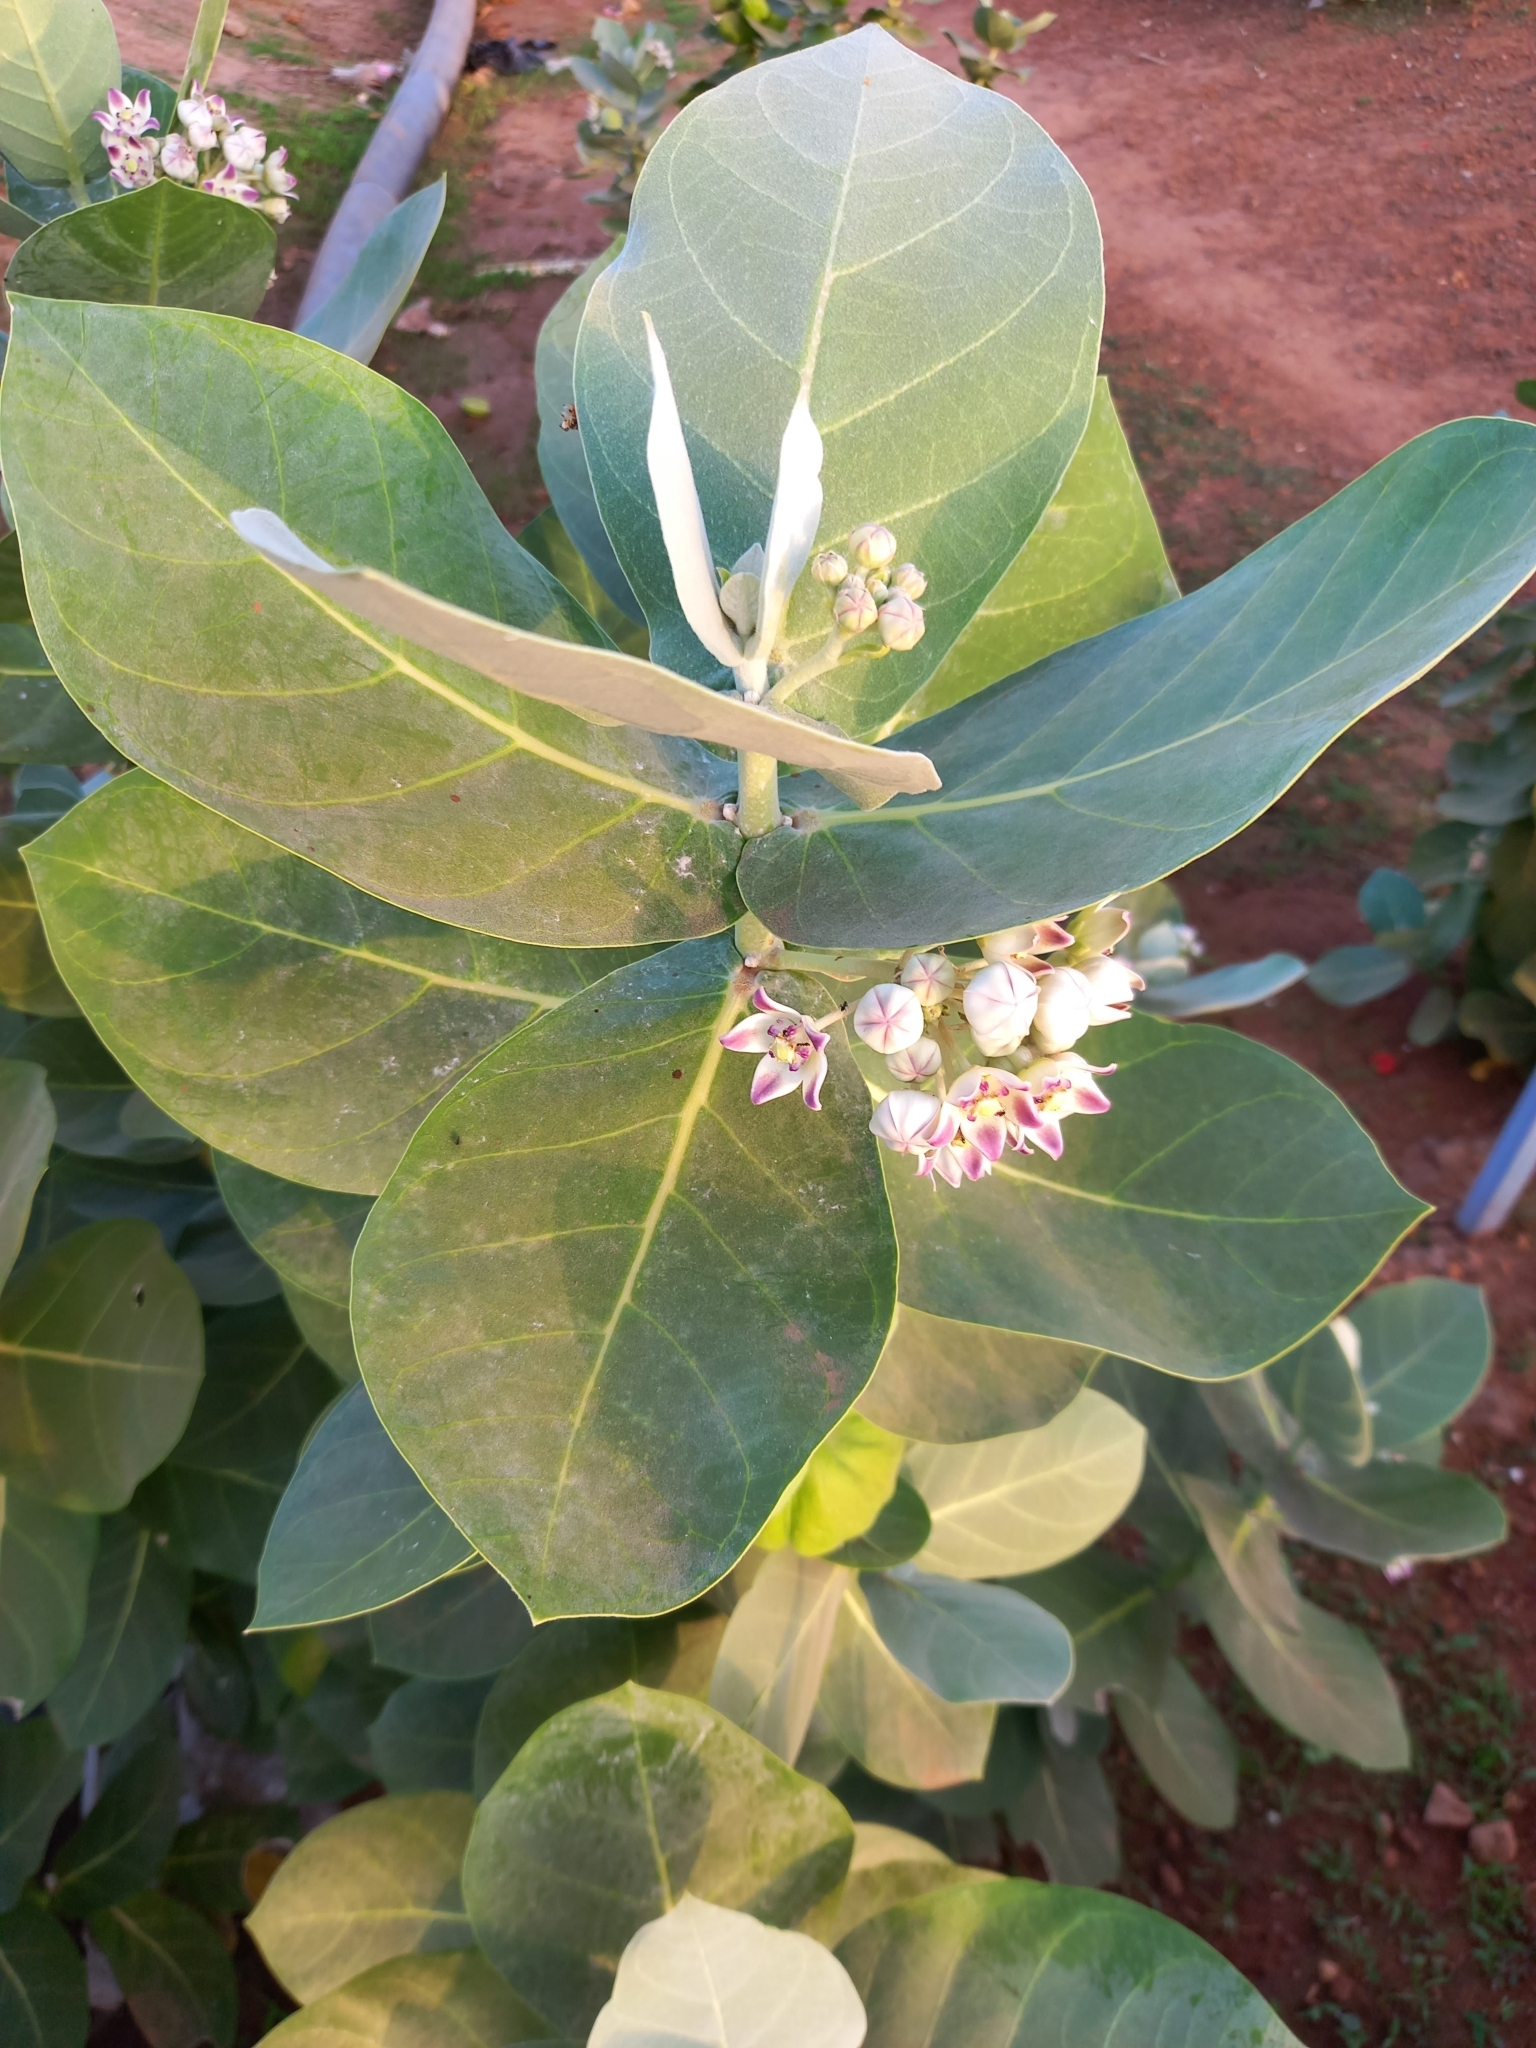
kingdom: Plantae
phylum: Tracheophyta
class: Magnoliopsida
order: Gentianales
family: Apocynaceae
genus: Calotropis
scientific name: Calotropis procera
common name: Roostertree
